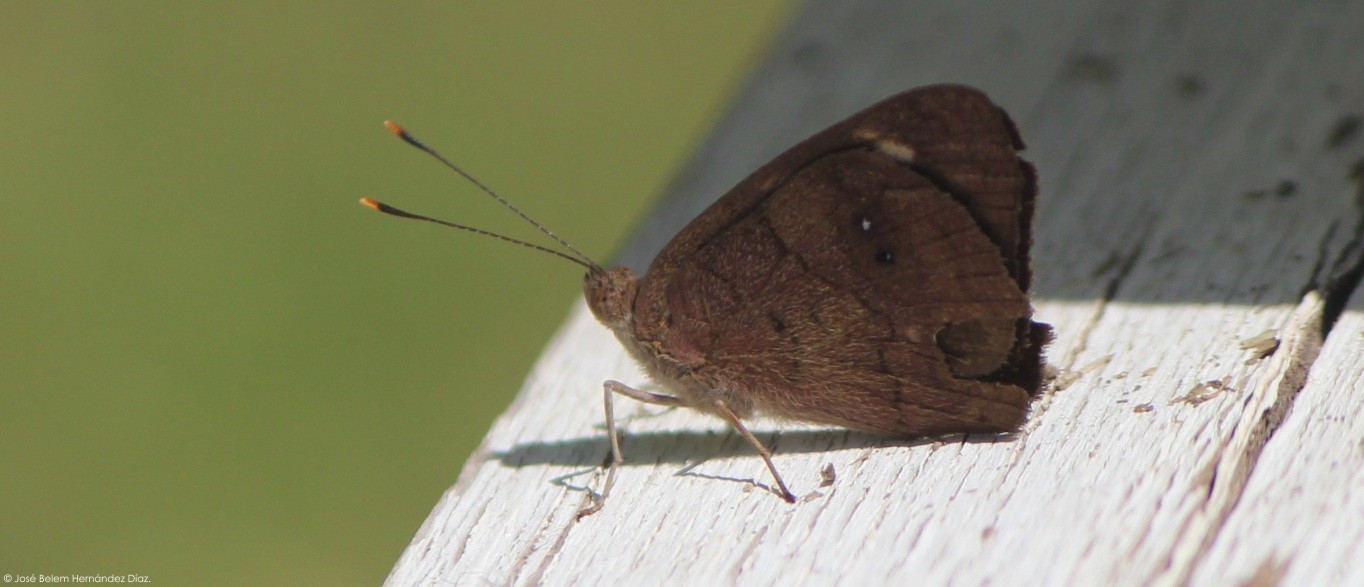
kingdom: Animalia
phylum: Arthropoda
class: Insecta
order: Lepidoptera
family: Nymphalidae
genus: Eunica
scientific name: Eunica monima
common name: Dingy purplewing
